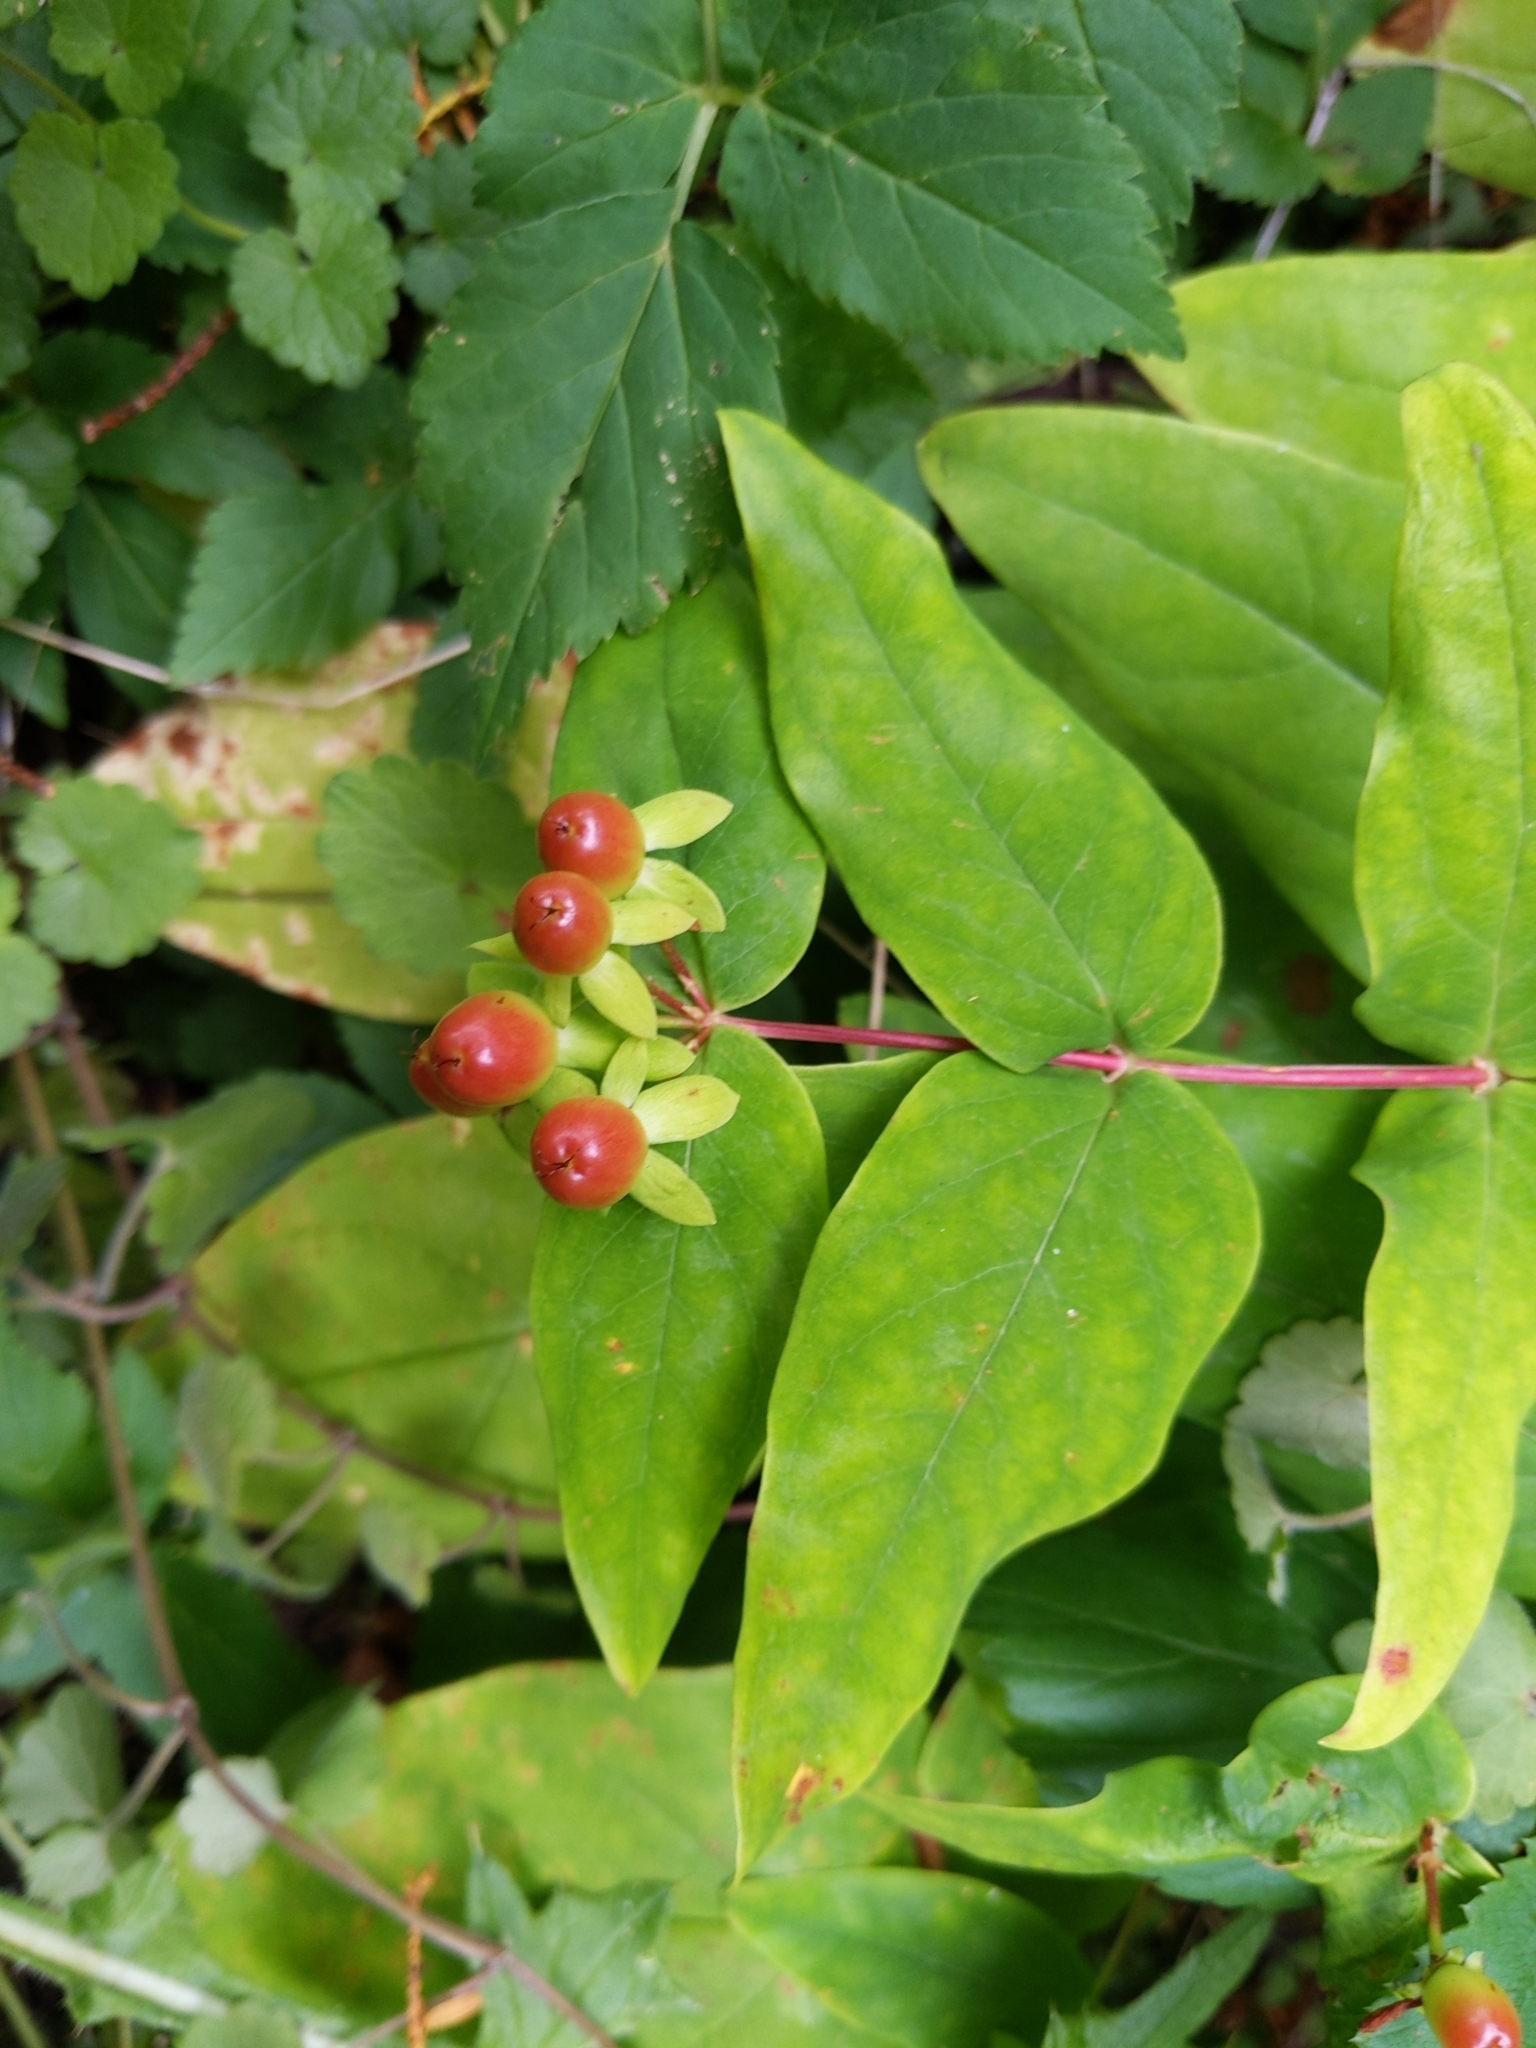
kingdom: Plantae
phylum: Tracheophyta
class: Magnoliopsida
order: Malpighiales
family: Hypericaceae
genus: Hypericum
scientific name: Hypericum androsaemum
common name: Sweet-amber
